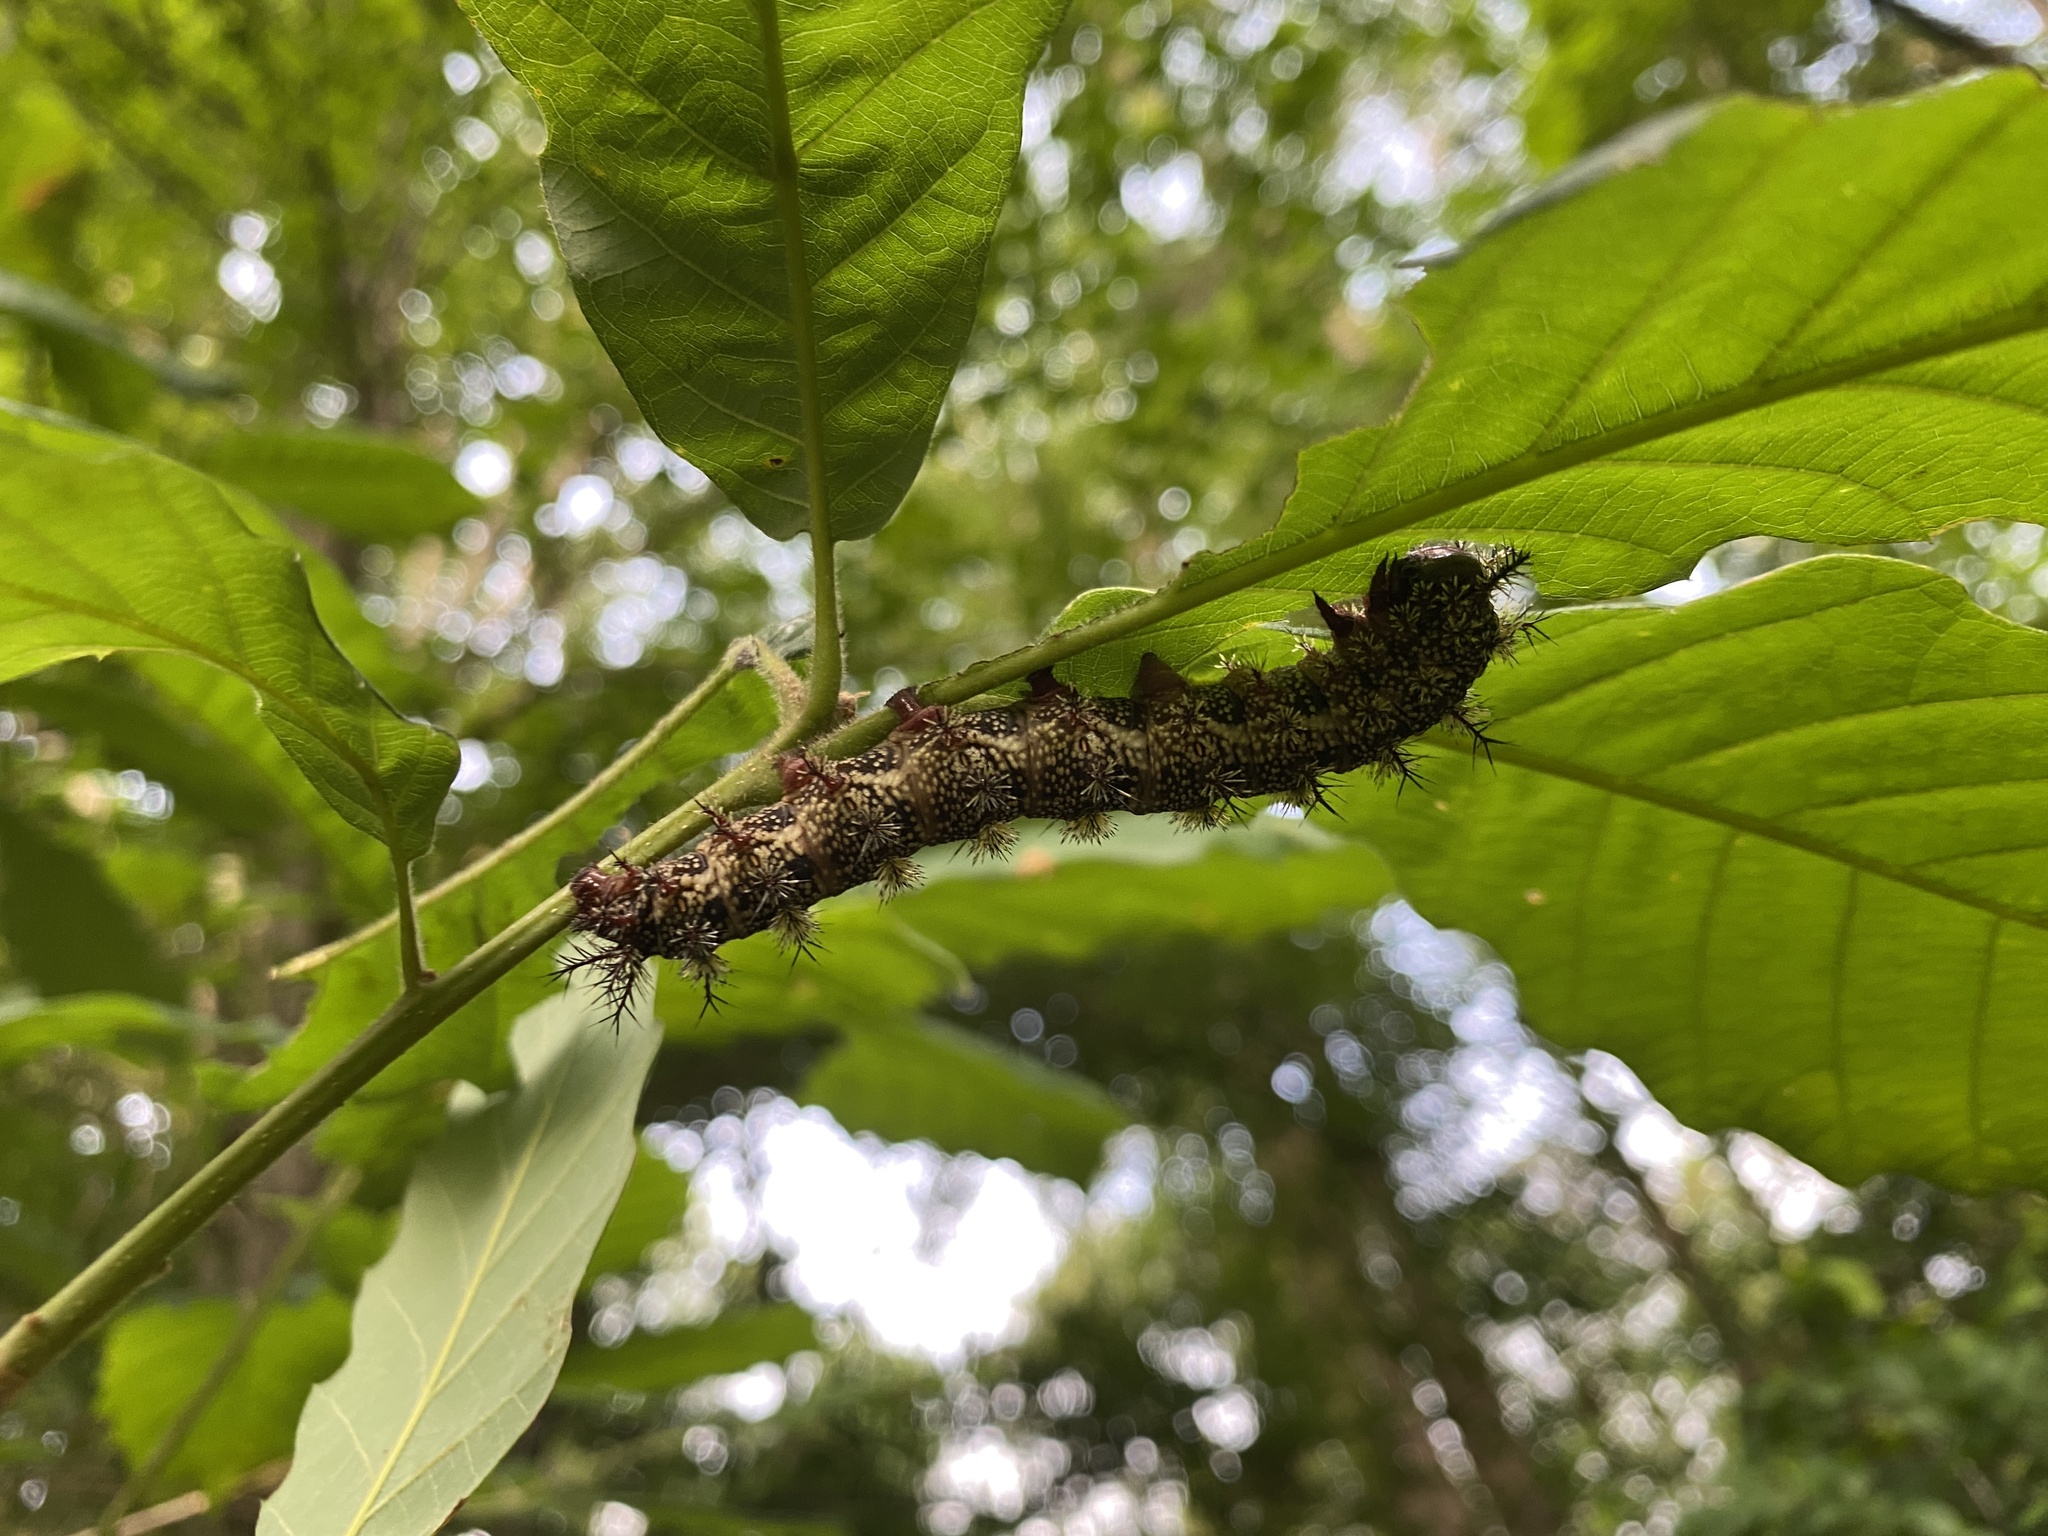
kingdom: Animalia
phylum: Arthropoda
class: Insecta
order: Lepidoptera
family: Saturniidae
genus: Hemileuca
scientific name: Hemileuca maia
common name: Eastern buckmoth
